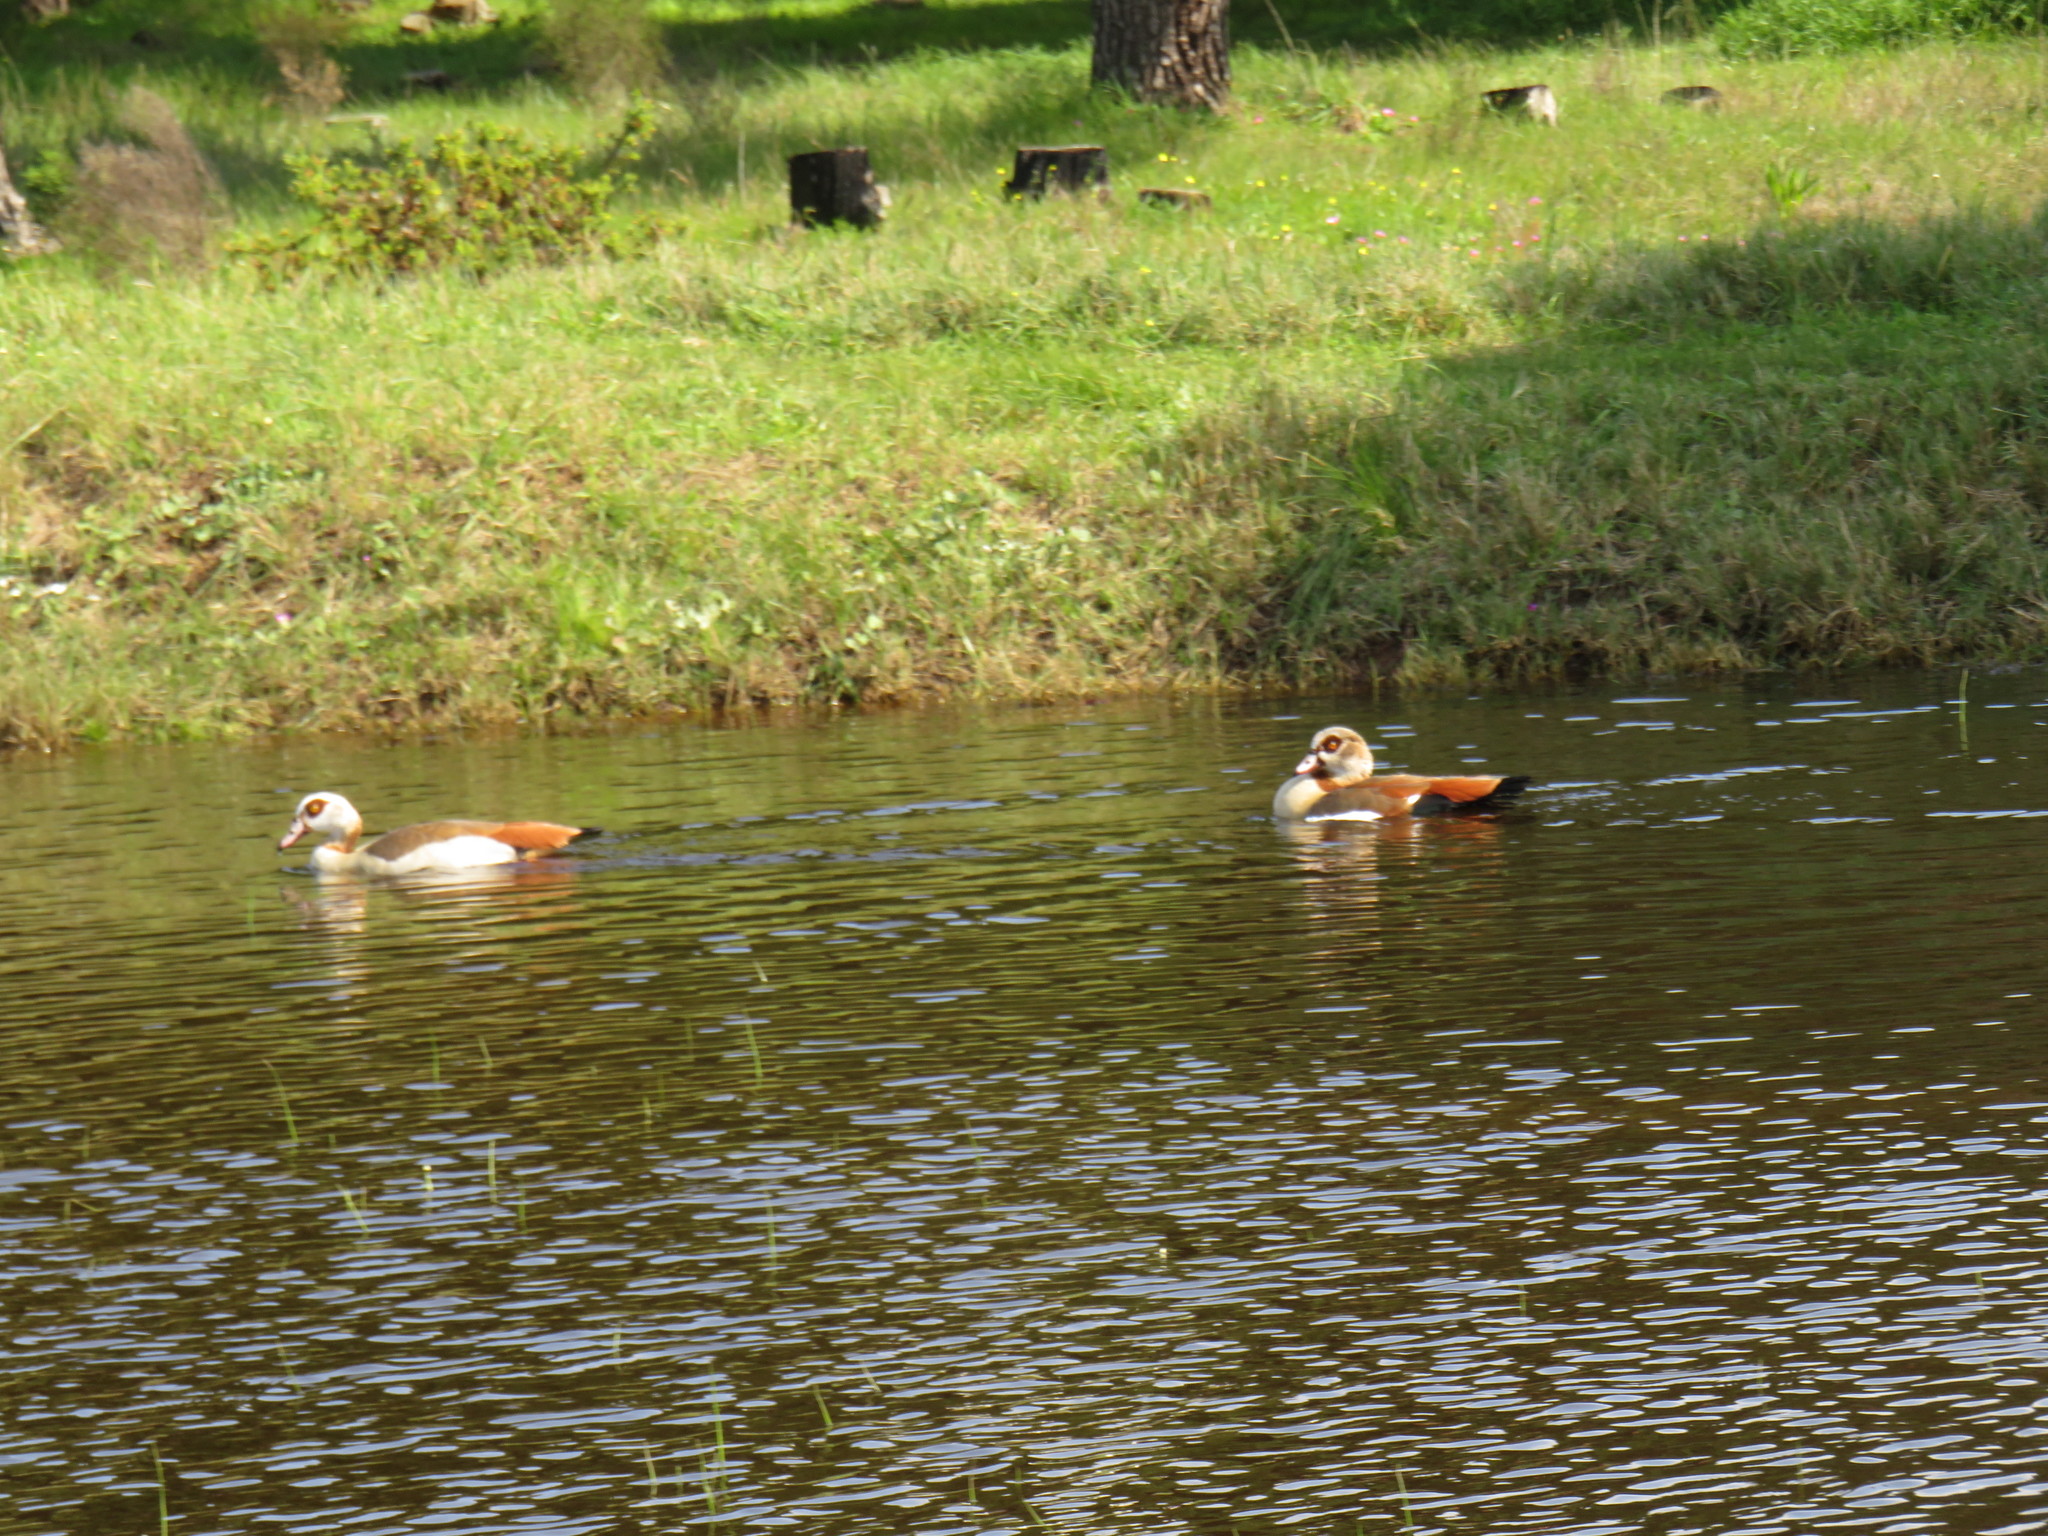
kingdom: Animalia
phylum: Chordata
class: Aves
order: Anseriformes
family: Anatidae
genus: Alopochen
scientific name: Alopochen aegyptiaca
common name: Egyptian goose
